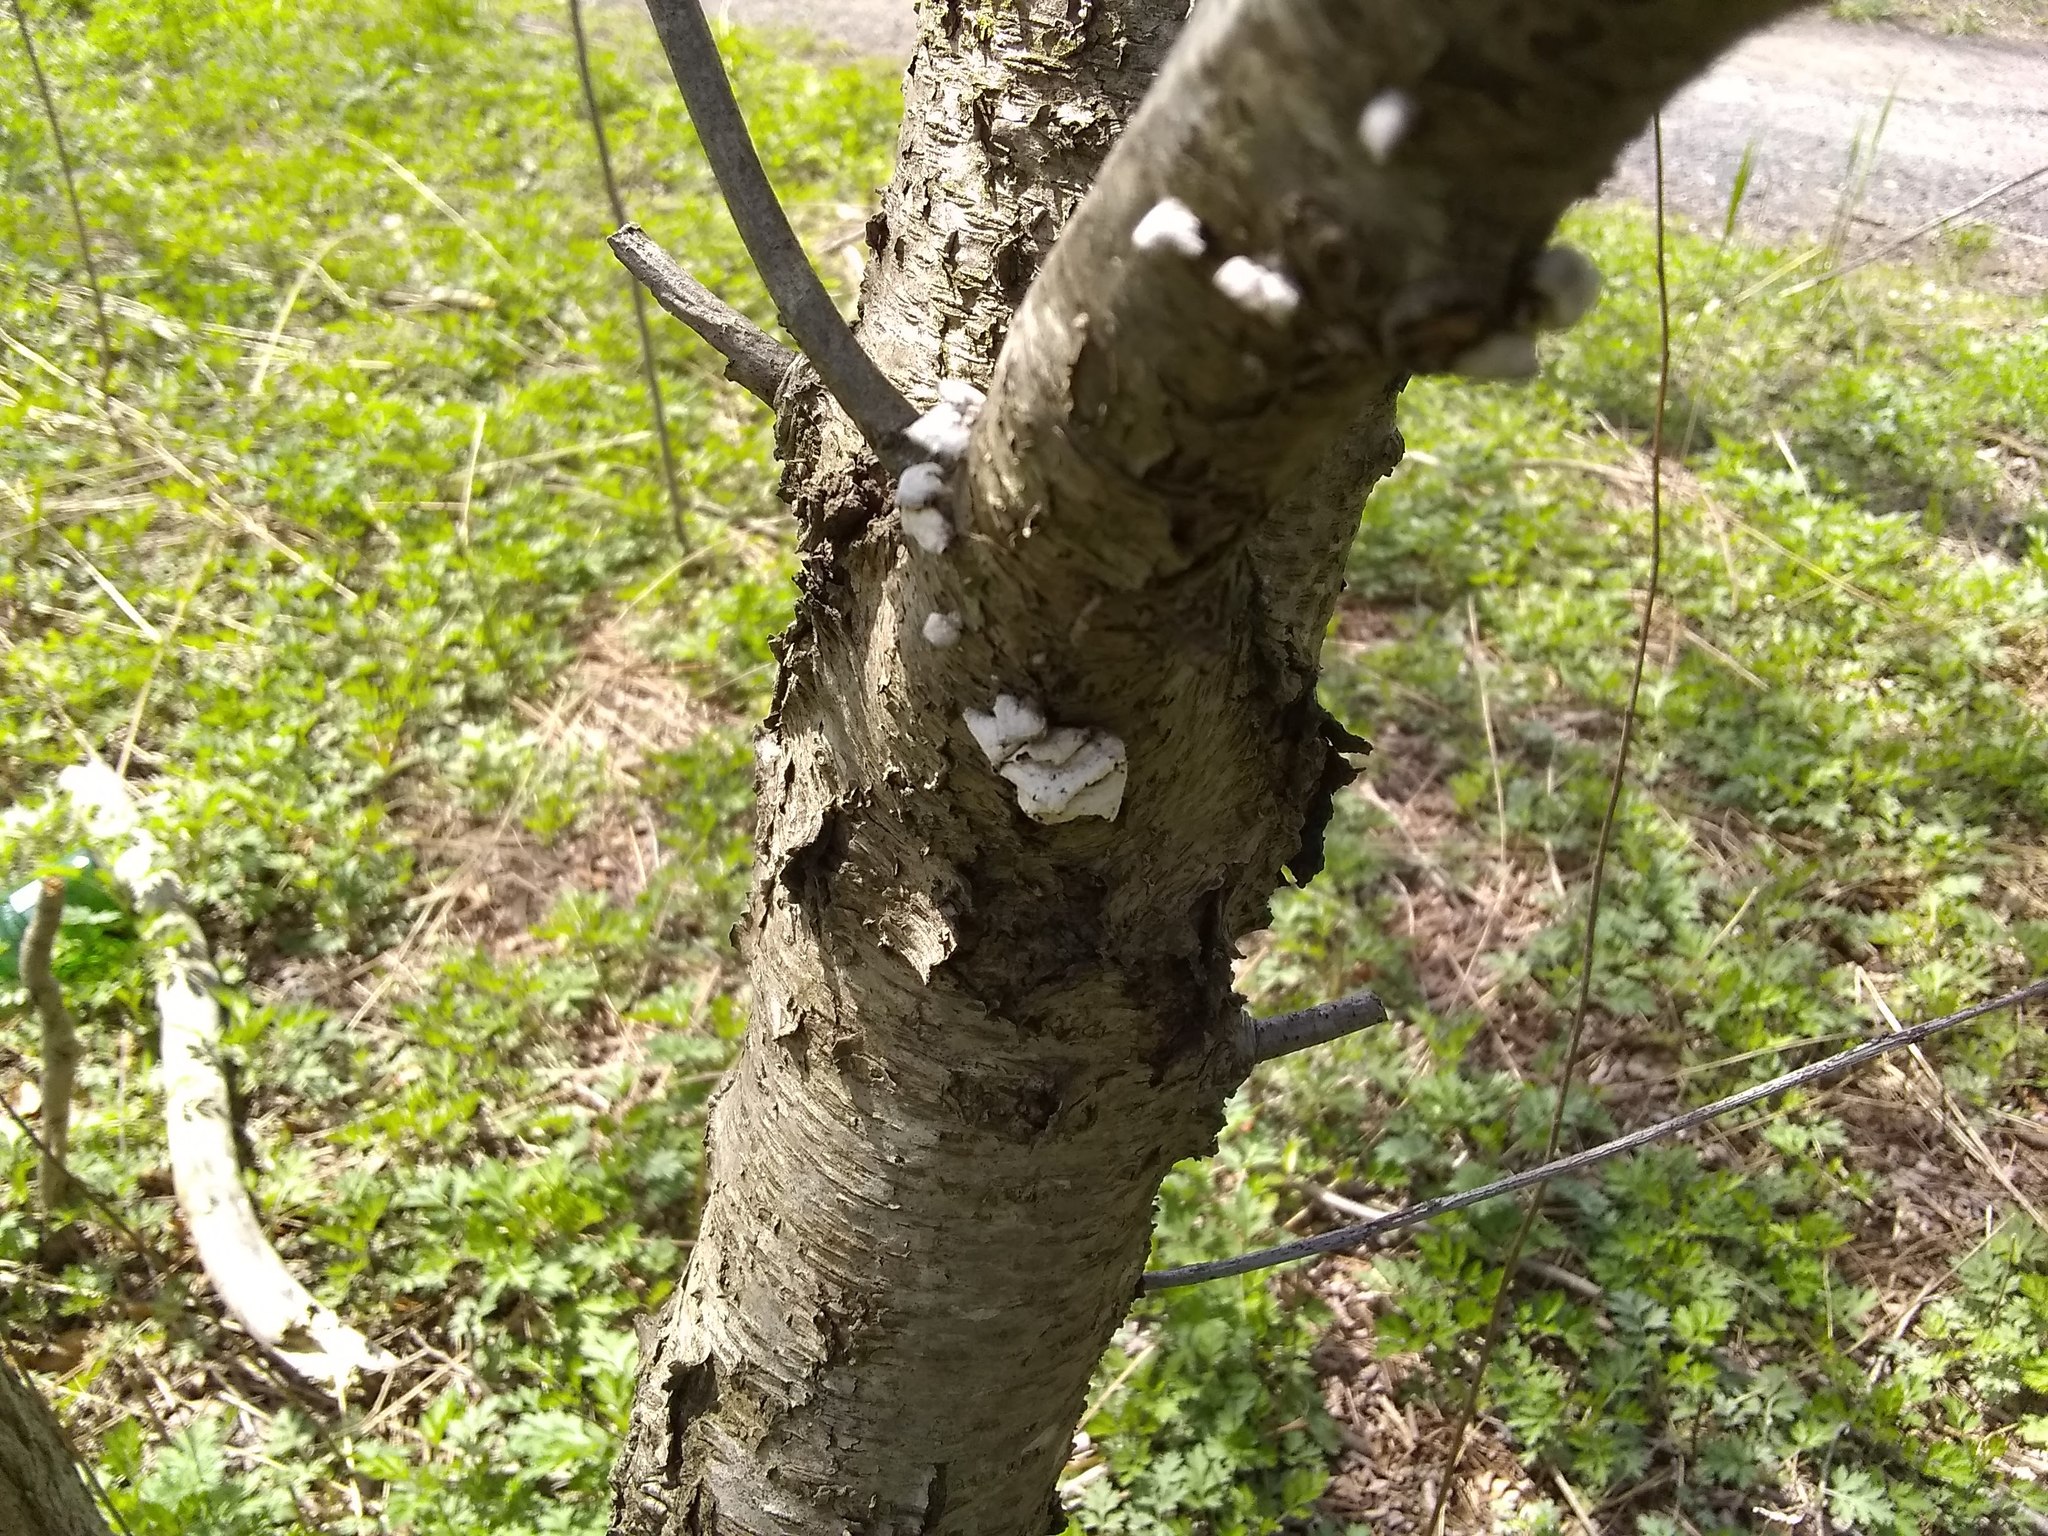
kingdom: Fungi
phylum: Basidiomycota
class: Agaricomycetes
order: Polyporales
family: Polyporaceae
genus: Trametes
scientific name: Trametes versicolor
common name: Turkeytail
